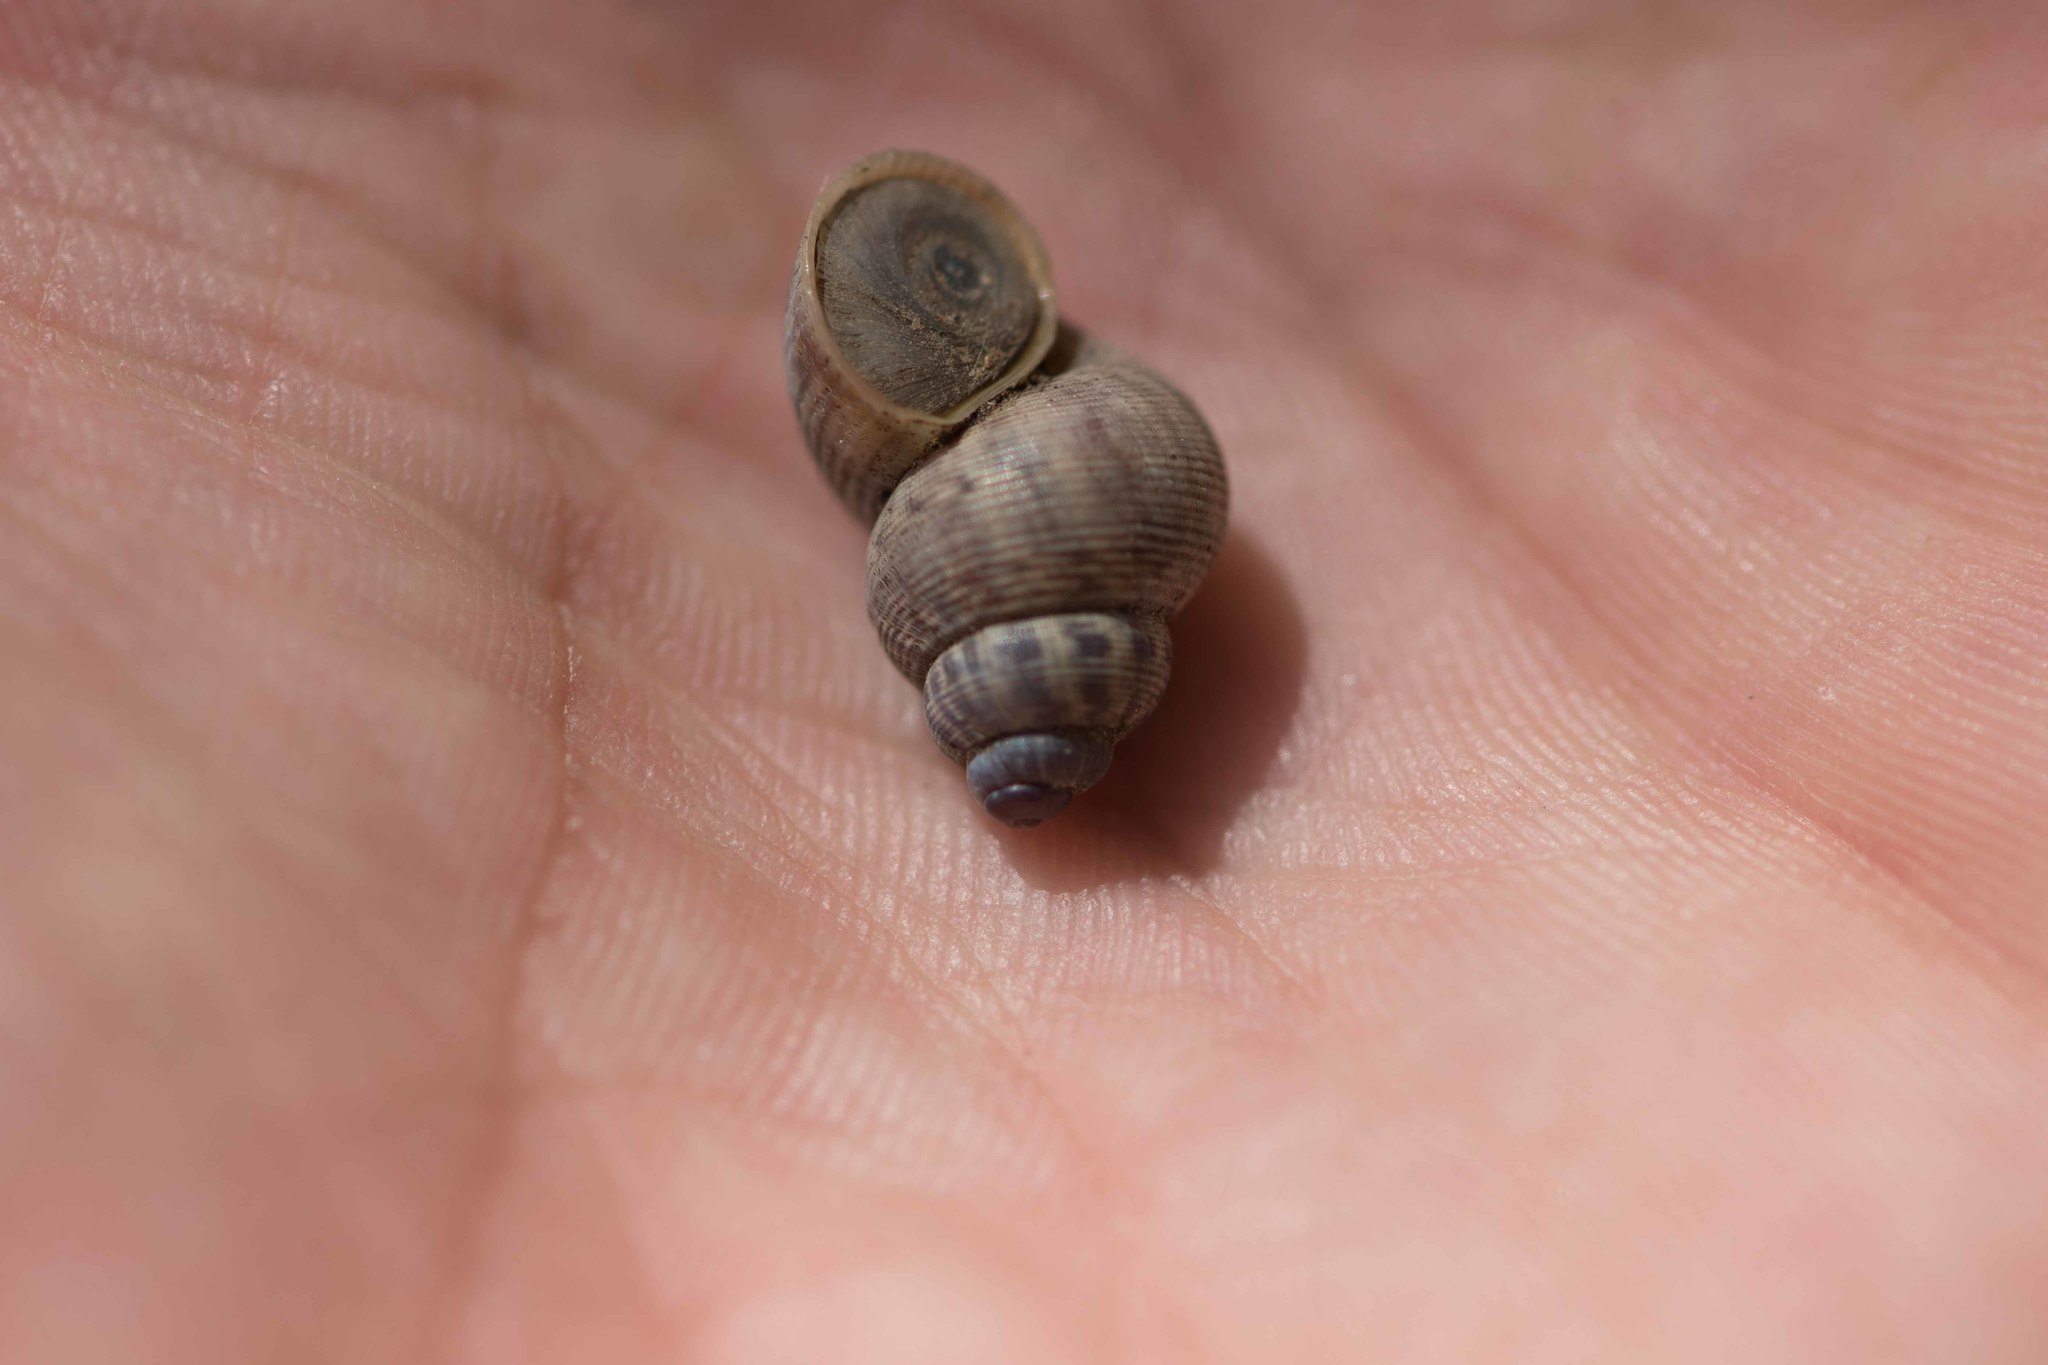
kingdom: Animalia
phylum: Mollusca
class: Gastropoda
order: Littorinimorpha
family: Pomatiidae
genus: Pomatias
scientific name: Pomatias elegans
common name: Red-mouthed snail
